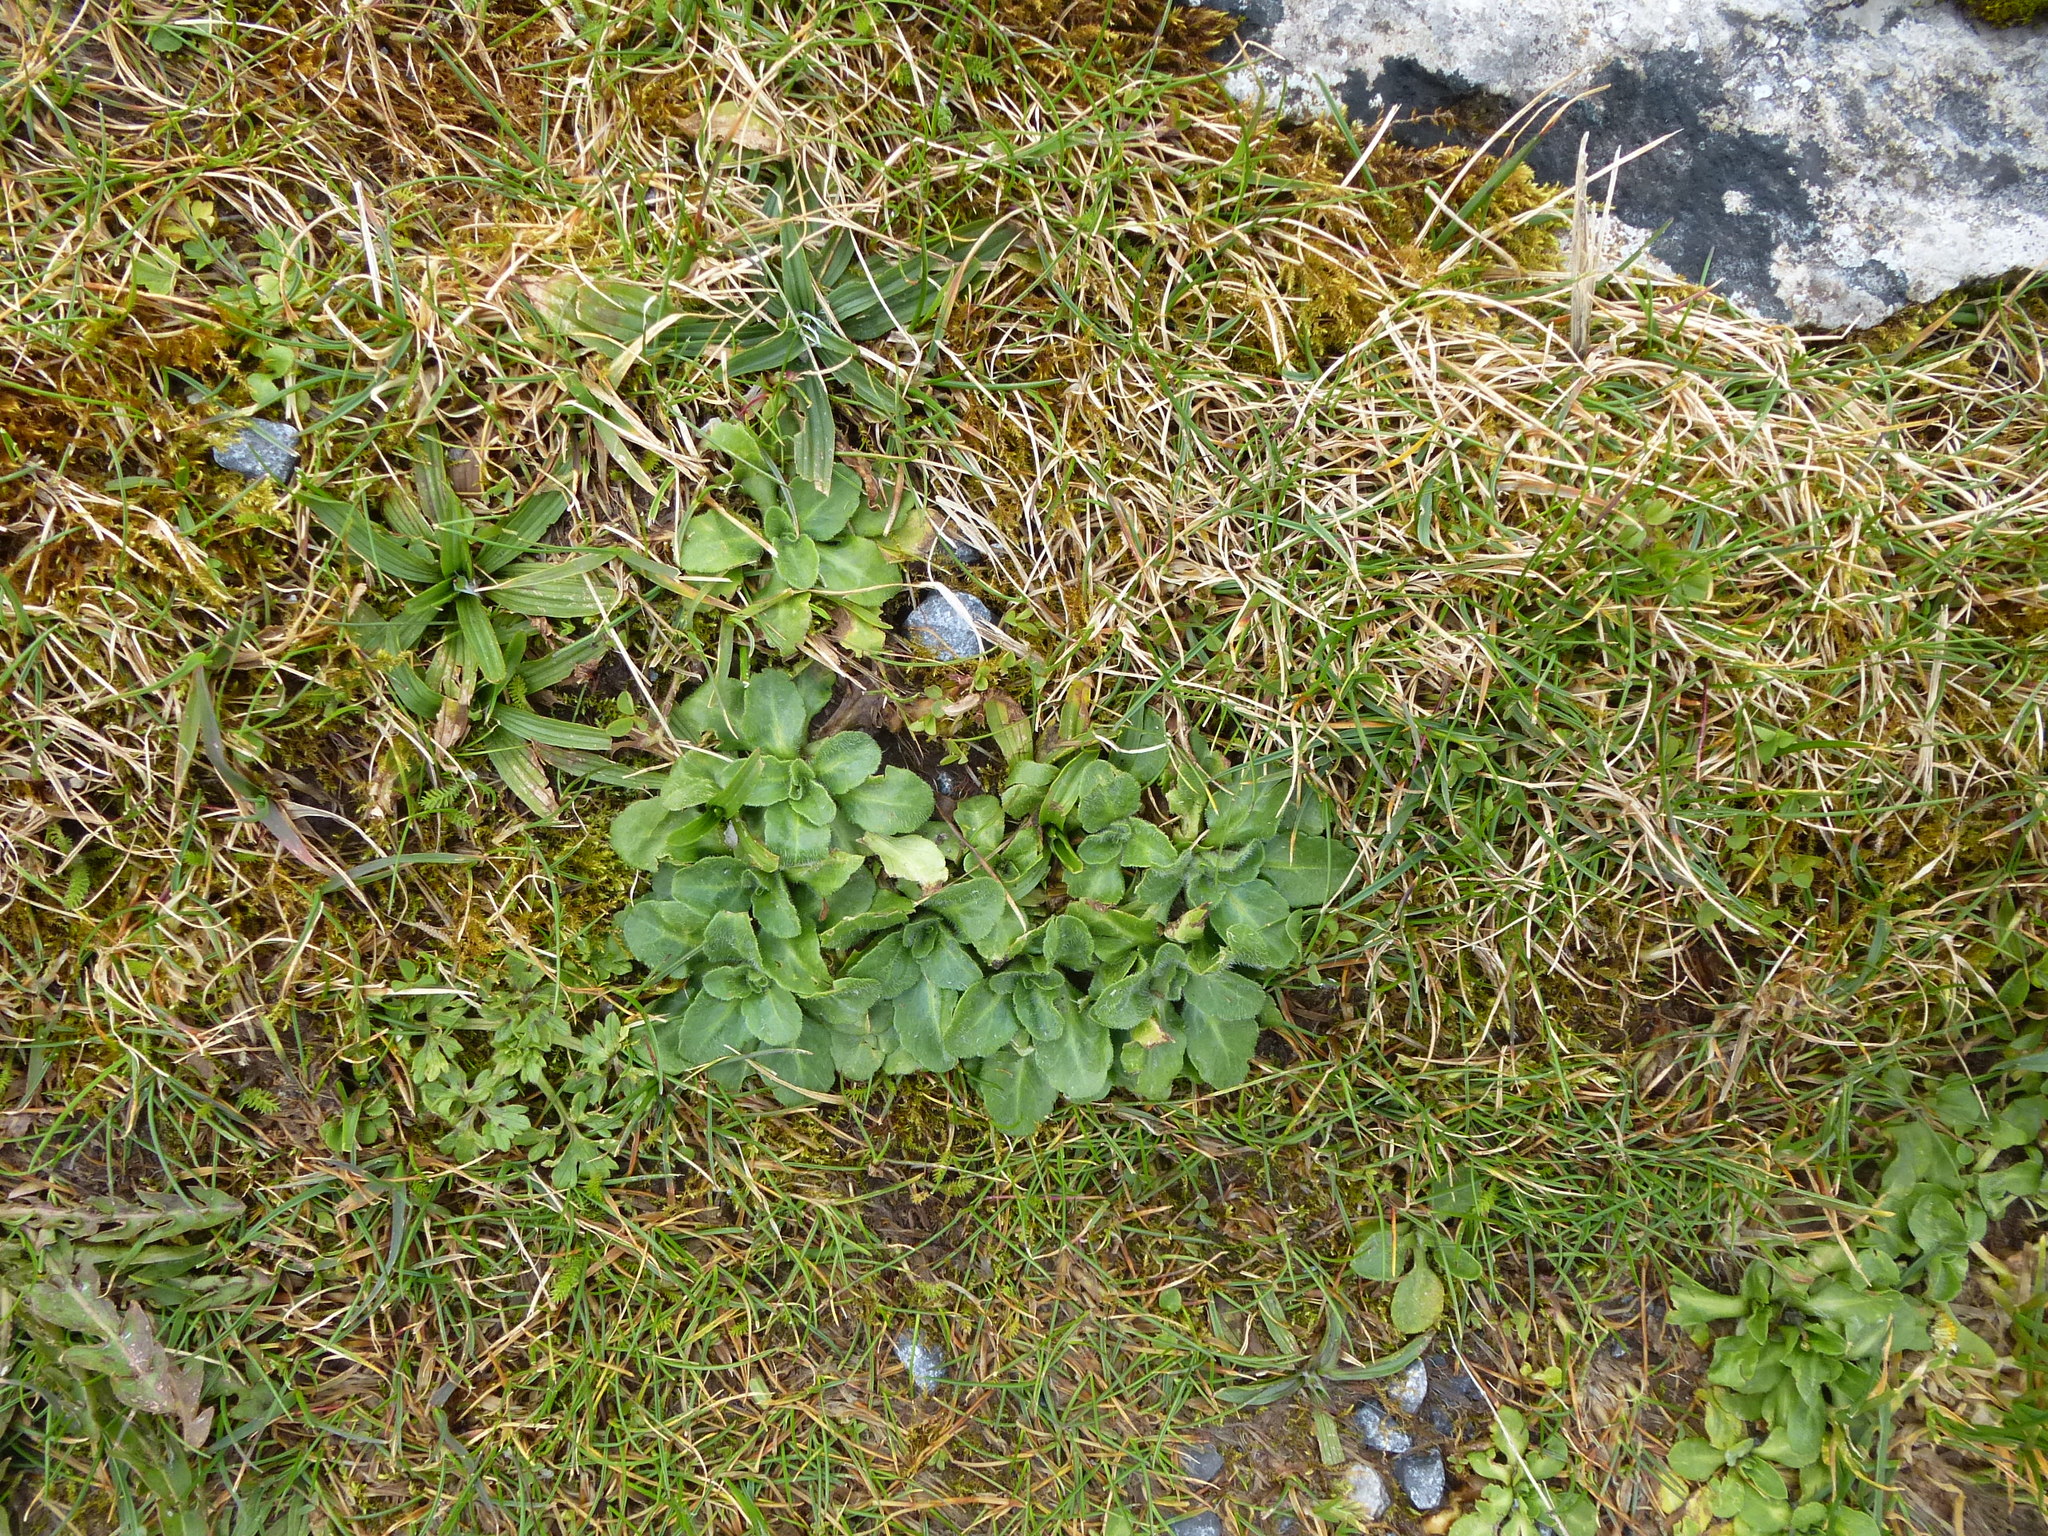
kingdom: Plantae
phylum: Tracheophyta
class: Magnoliopsida
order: Asterales
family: Asteraceae
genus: Bellis
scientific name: Bellis perennis
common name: Lawndaisy
